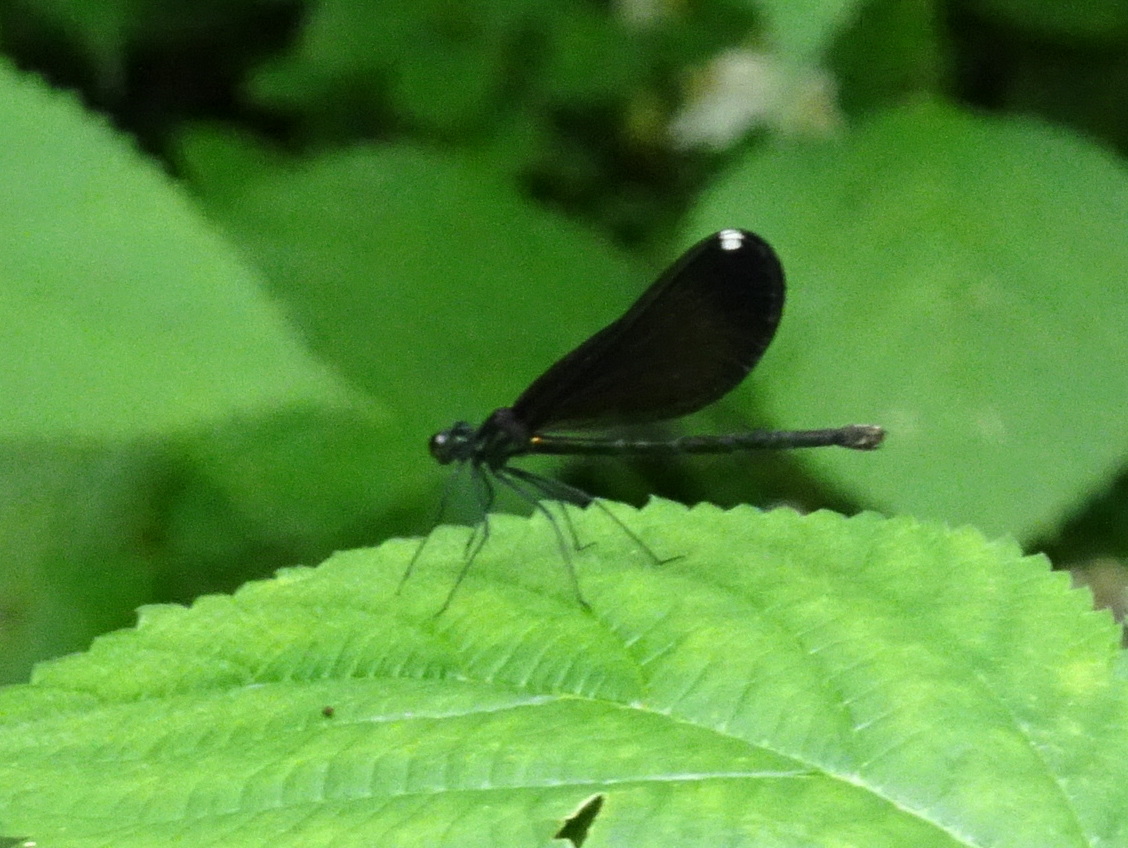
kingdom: Animalia
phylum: Arthropoda
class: Insecta
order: Odonata
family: Calopterygidae
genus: Calopteryx
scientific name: Calopteryx maculata
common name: Ebony jewelwing
